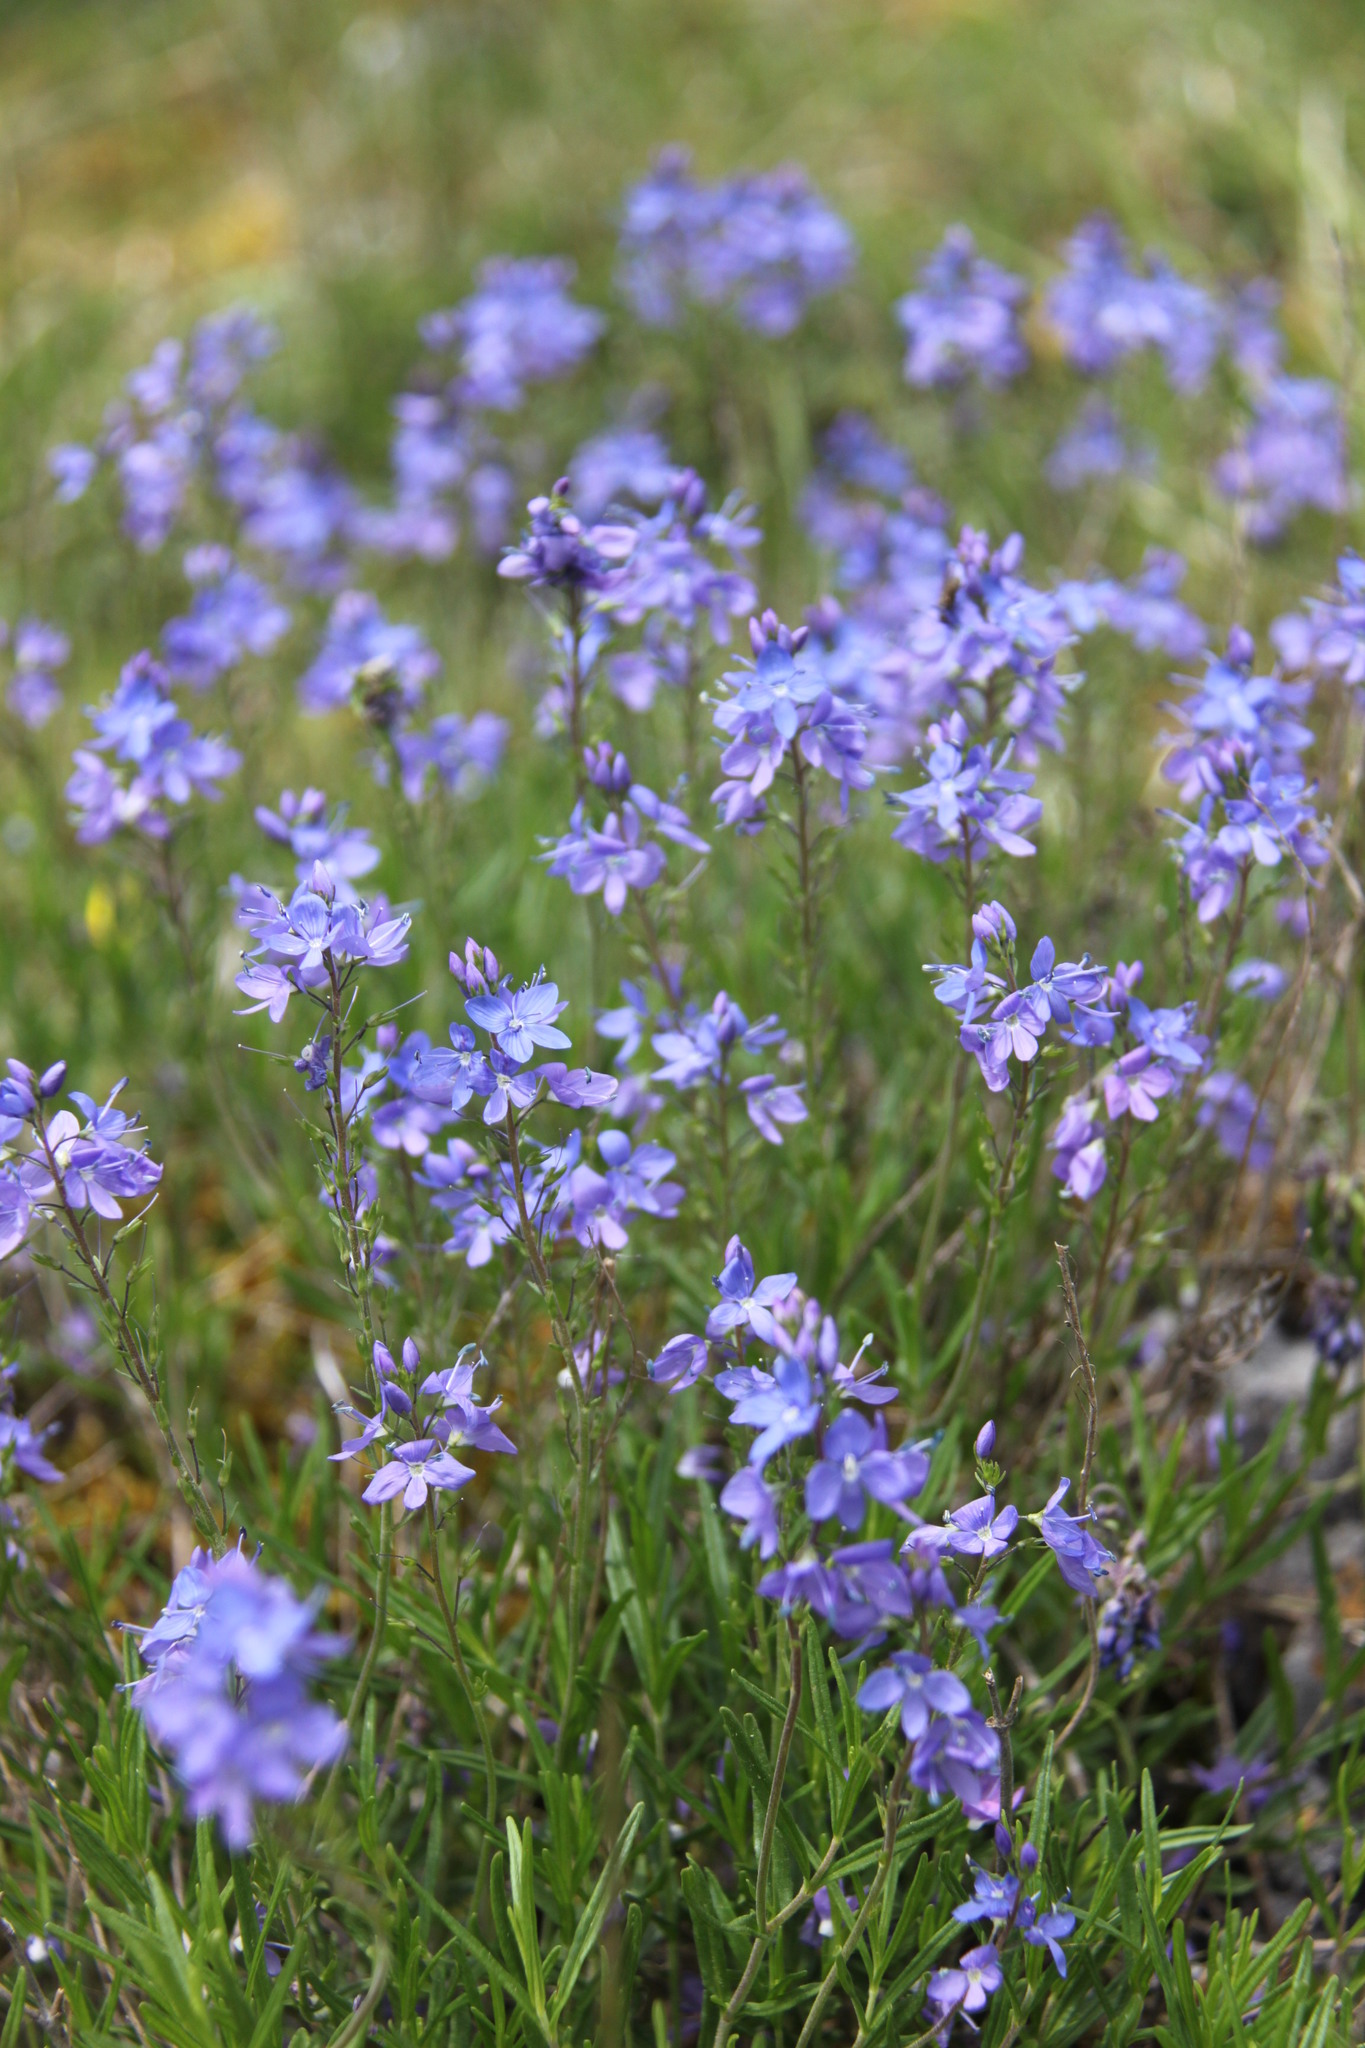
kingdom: Plantae
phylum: Tracheophyta
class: Magnoliopsida
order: Lamiales
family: Plantaginaceae
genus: Veronica
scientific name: Veronica satureiifolia
